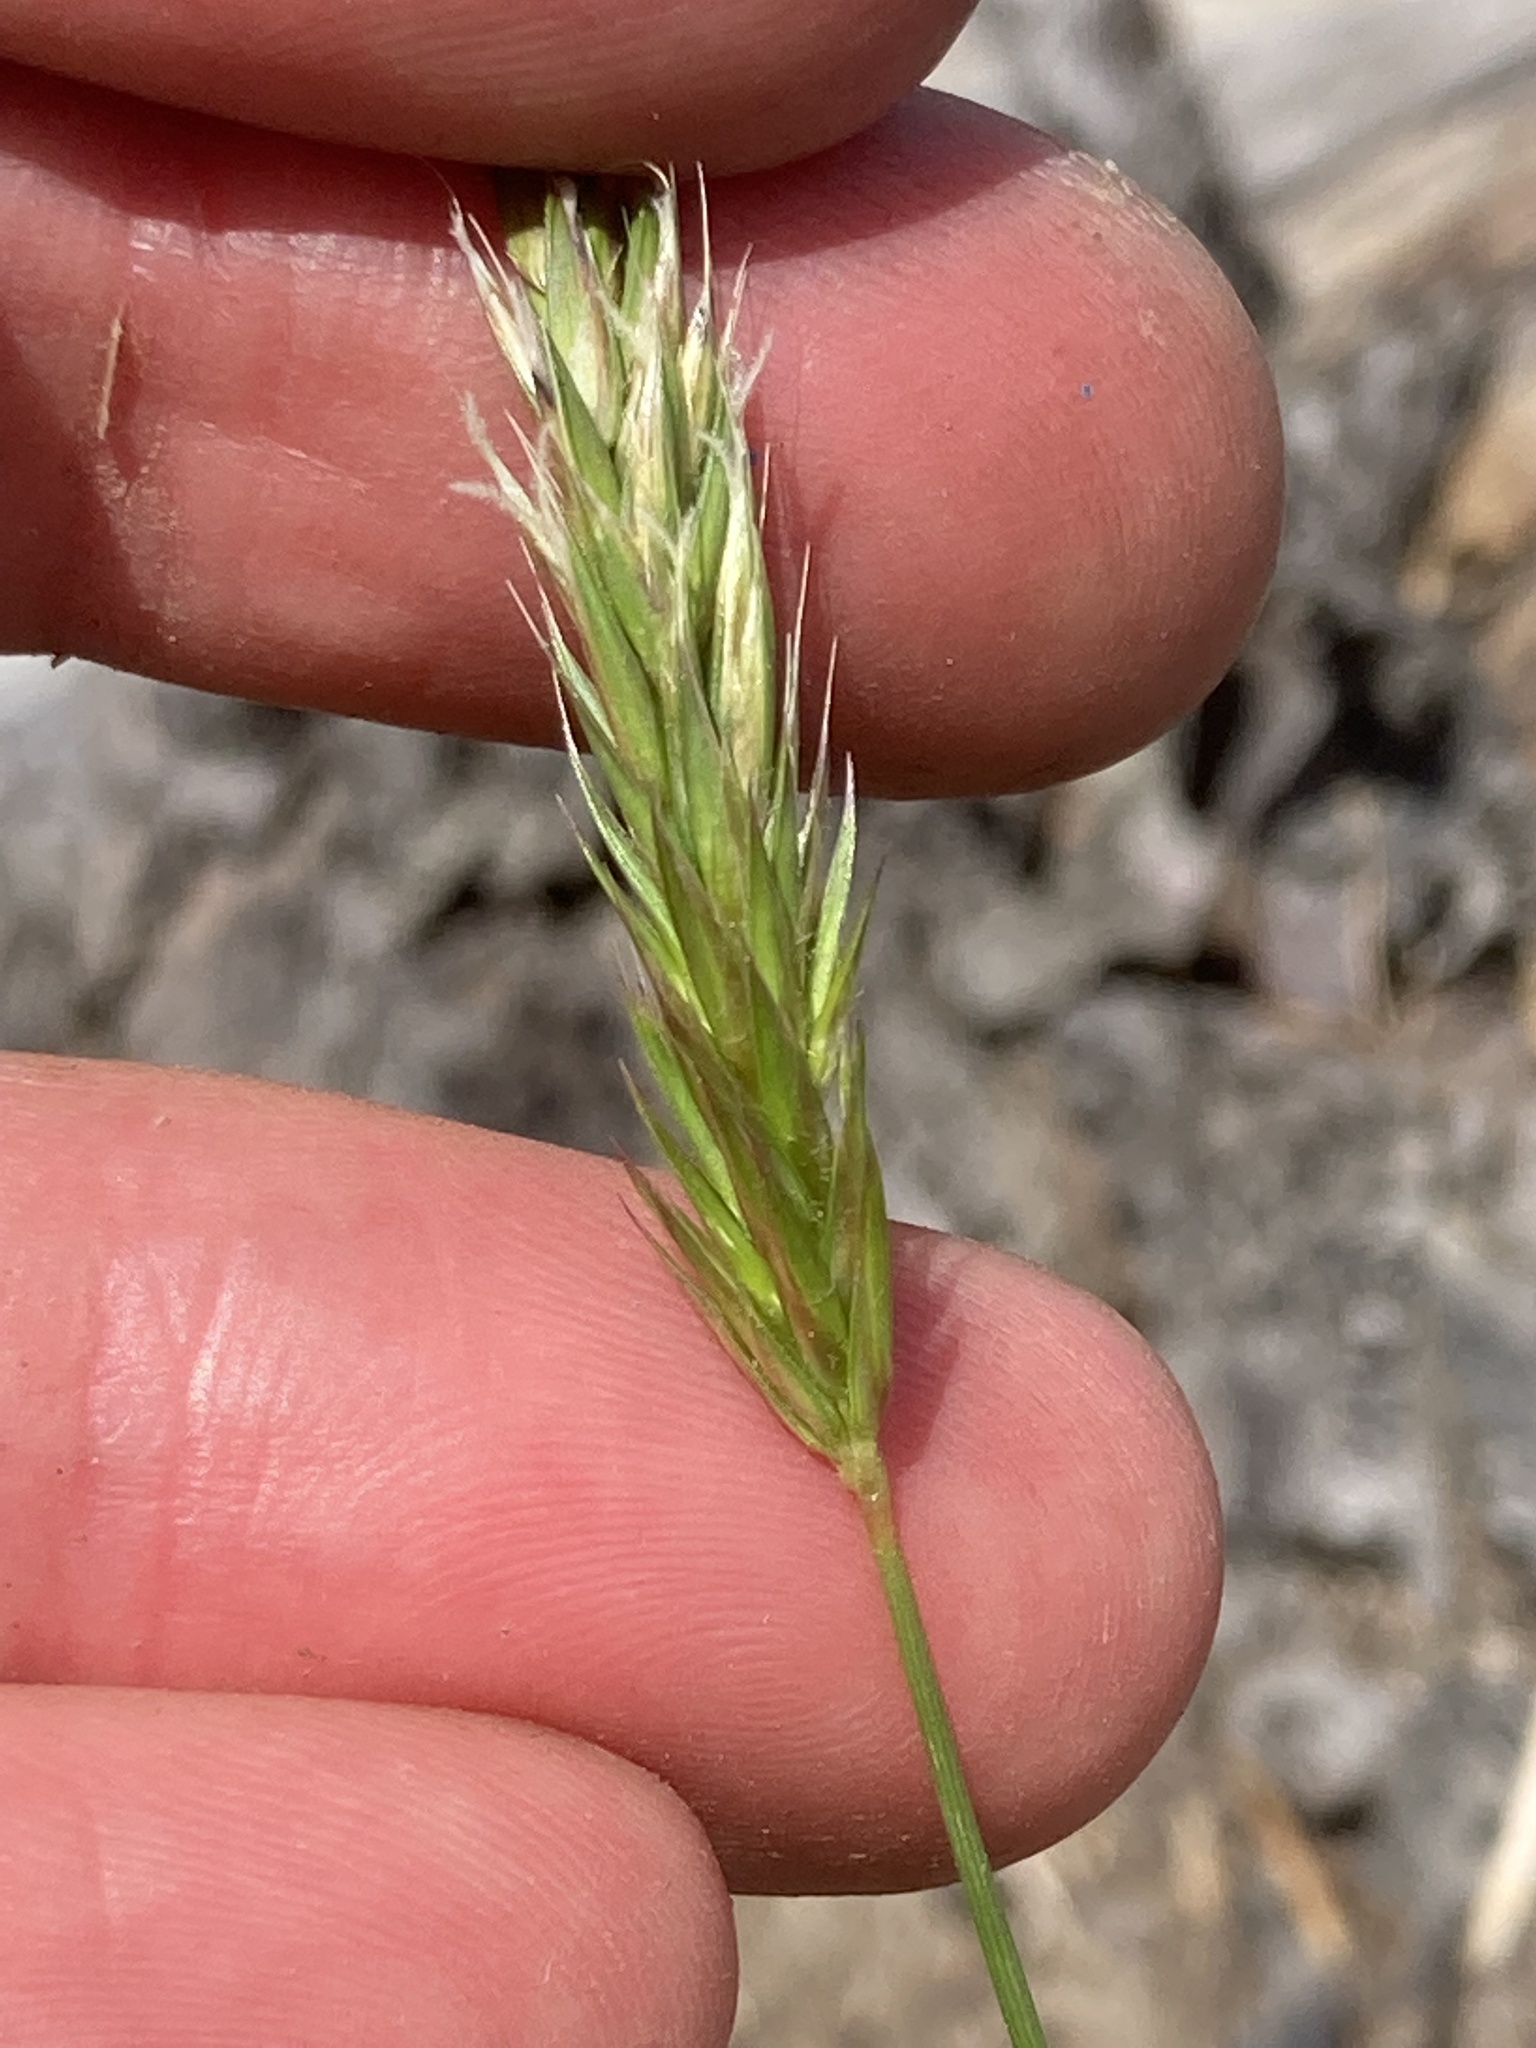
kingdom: Plantae
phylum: Tracheophyta
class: Liliopsida
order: Poales
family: Poaceae
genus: Anthoxanthum
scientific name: Anthoxanthum odoratum
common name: Sweet vernalgrass
